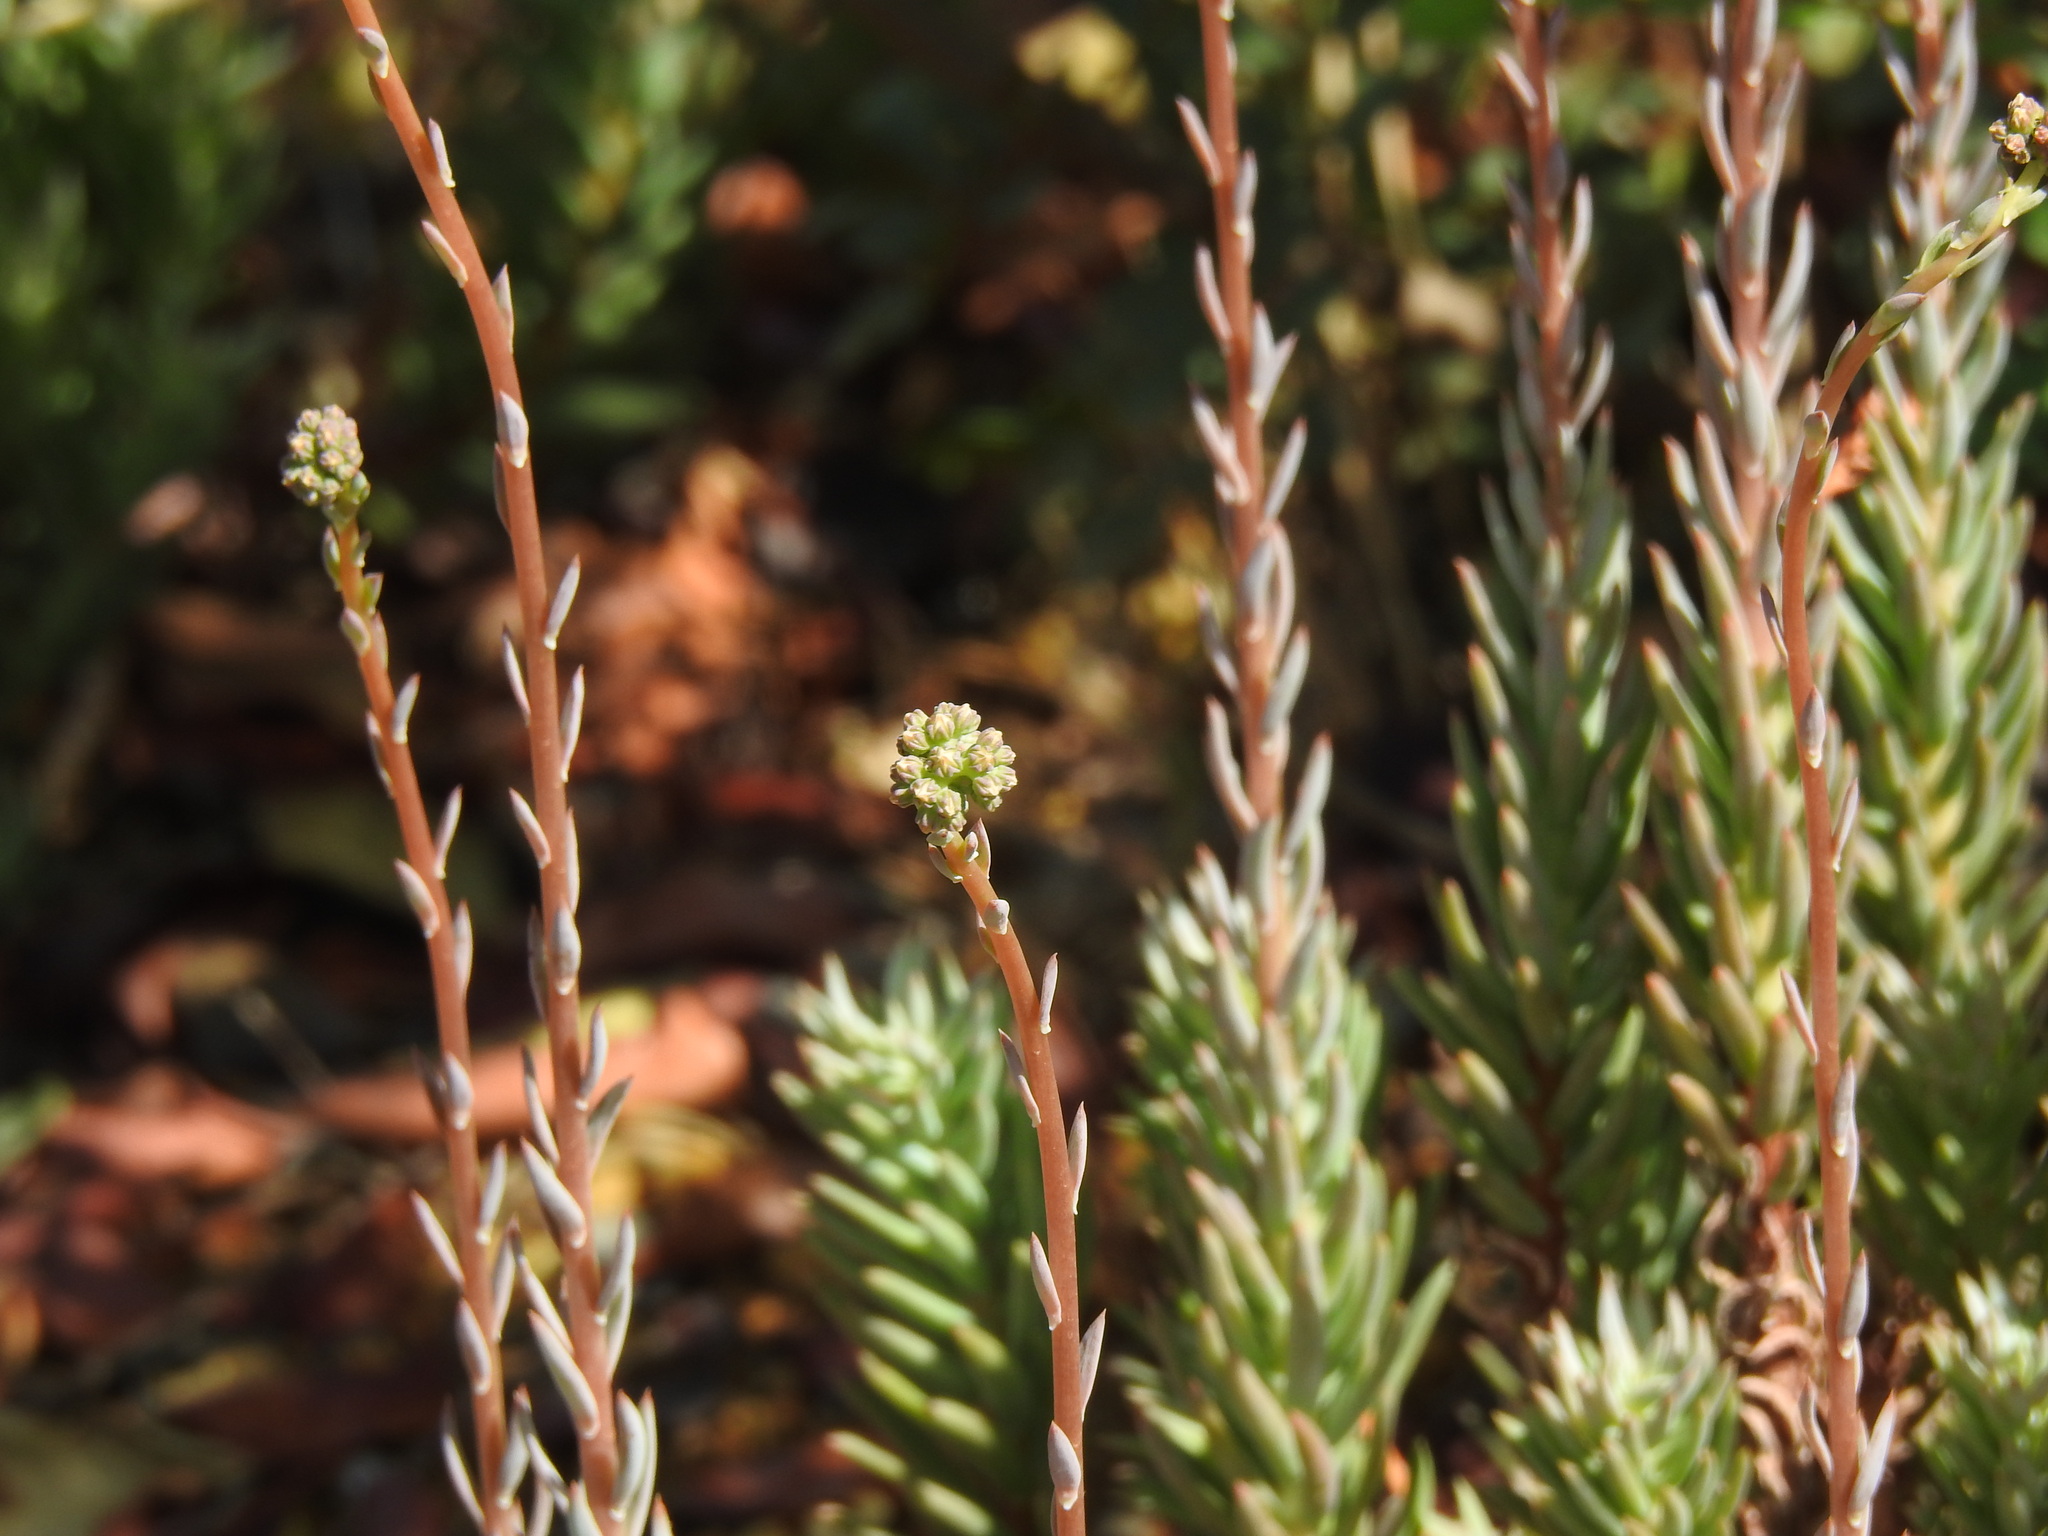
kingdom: Plantae
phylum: Tracheophyta
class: Magnoliopsida
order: Saxifragales
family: Crassulaceae
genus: Petrosedum
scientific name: Petrosedum sediforme
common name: Pale stonecrop
